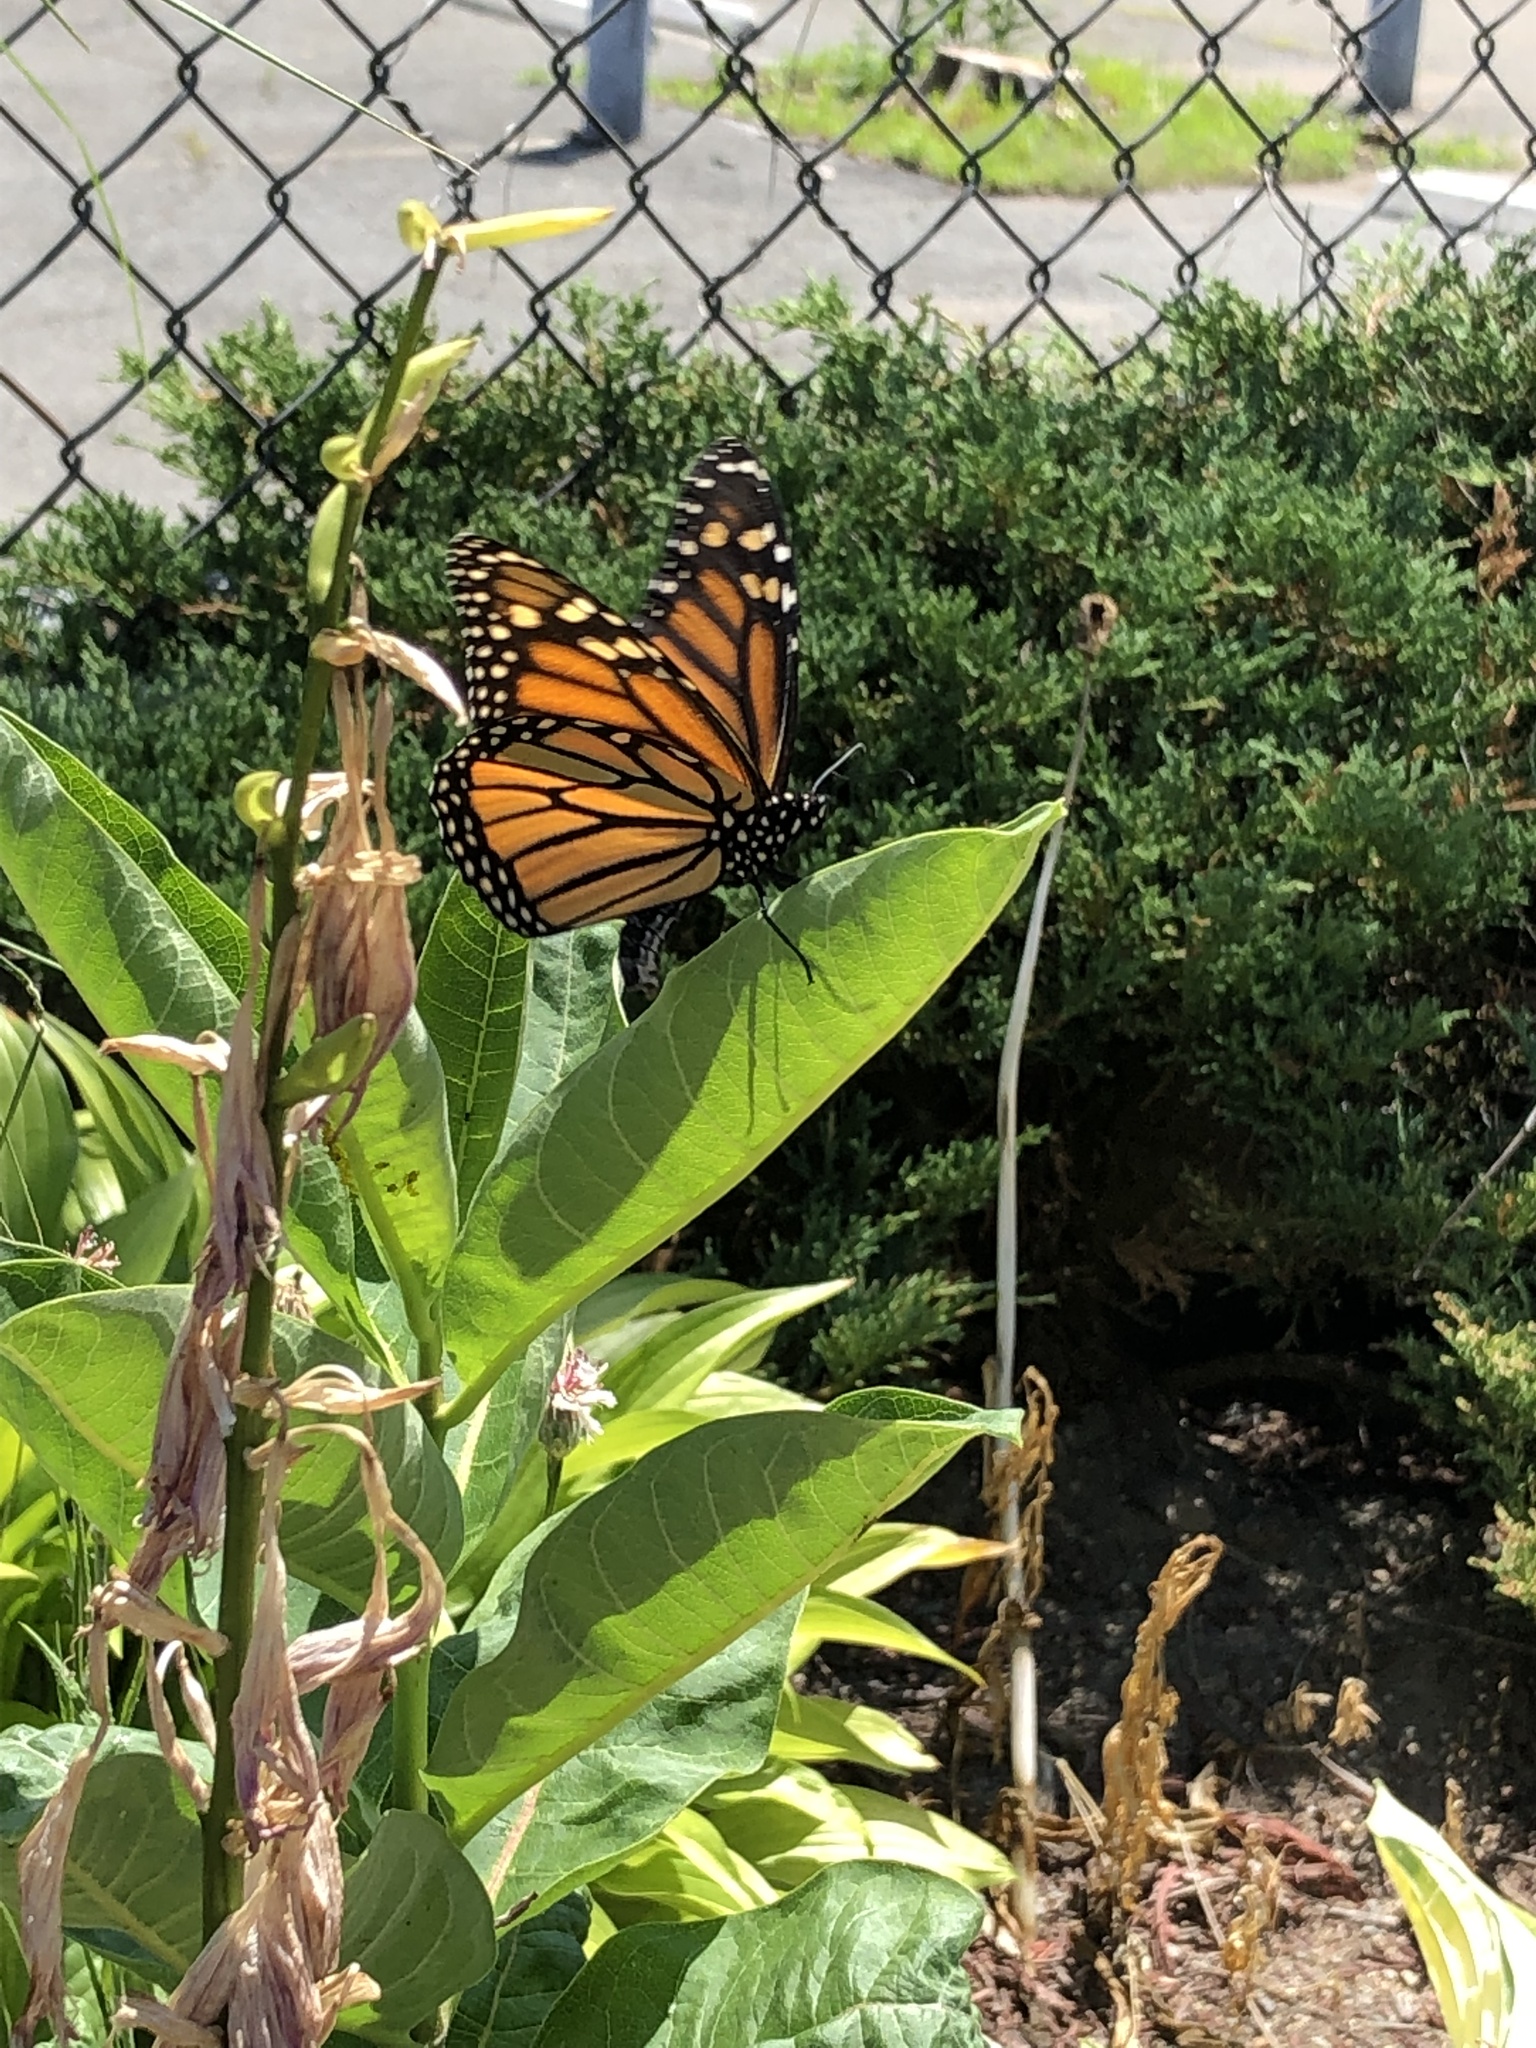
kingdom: Animalia
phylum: Arthropoda
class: Insecta
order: Lepidoptera
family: Nymphalidae
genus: Danaus
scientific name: Danaus plexippus
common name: Monarch
